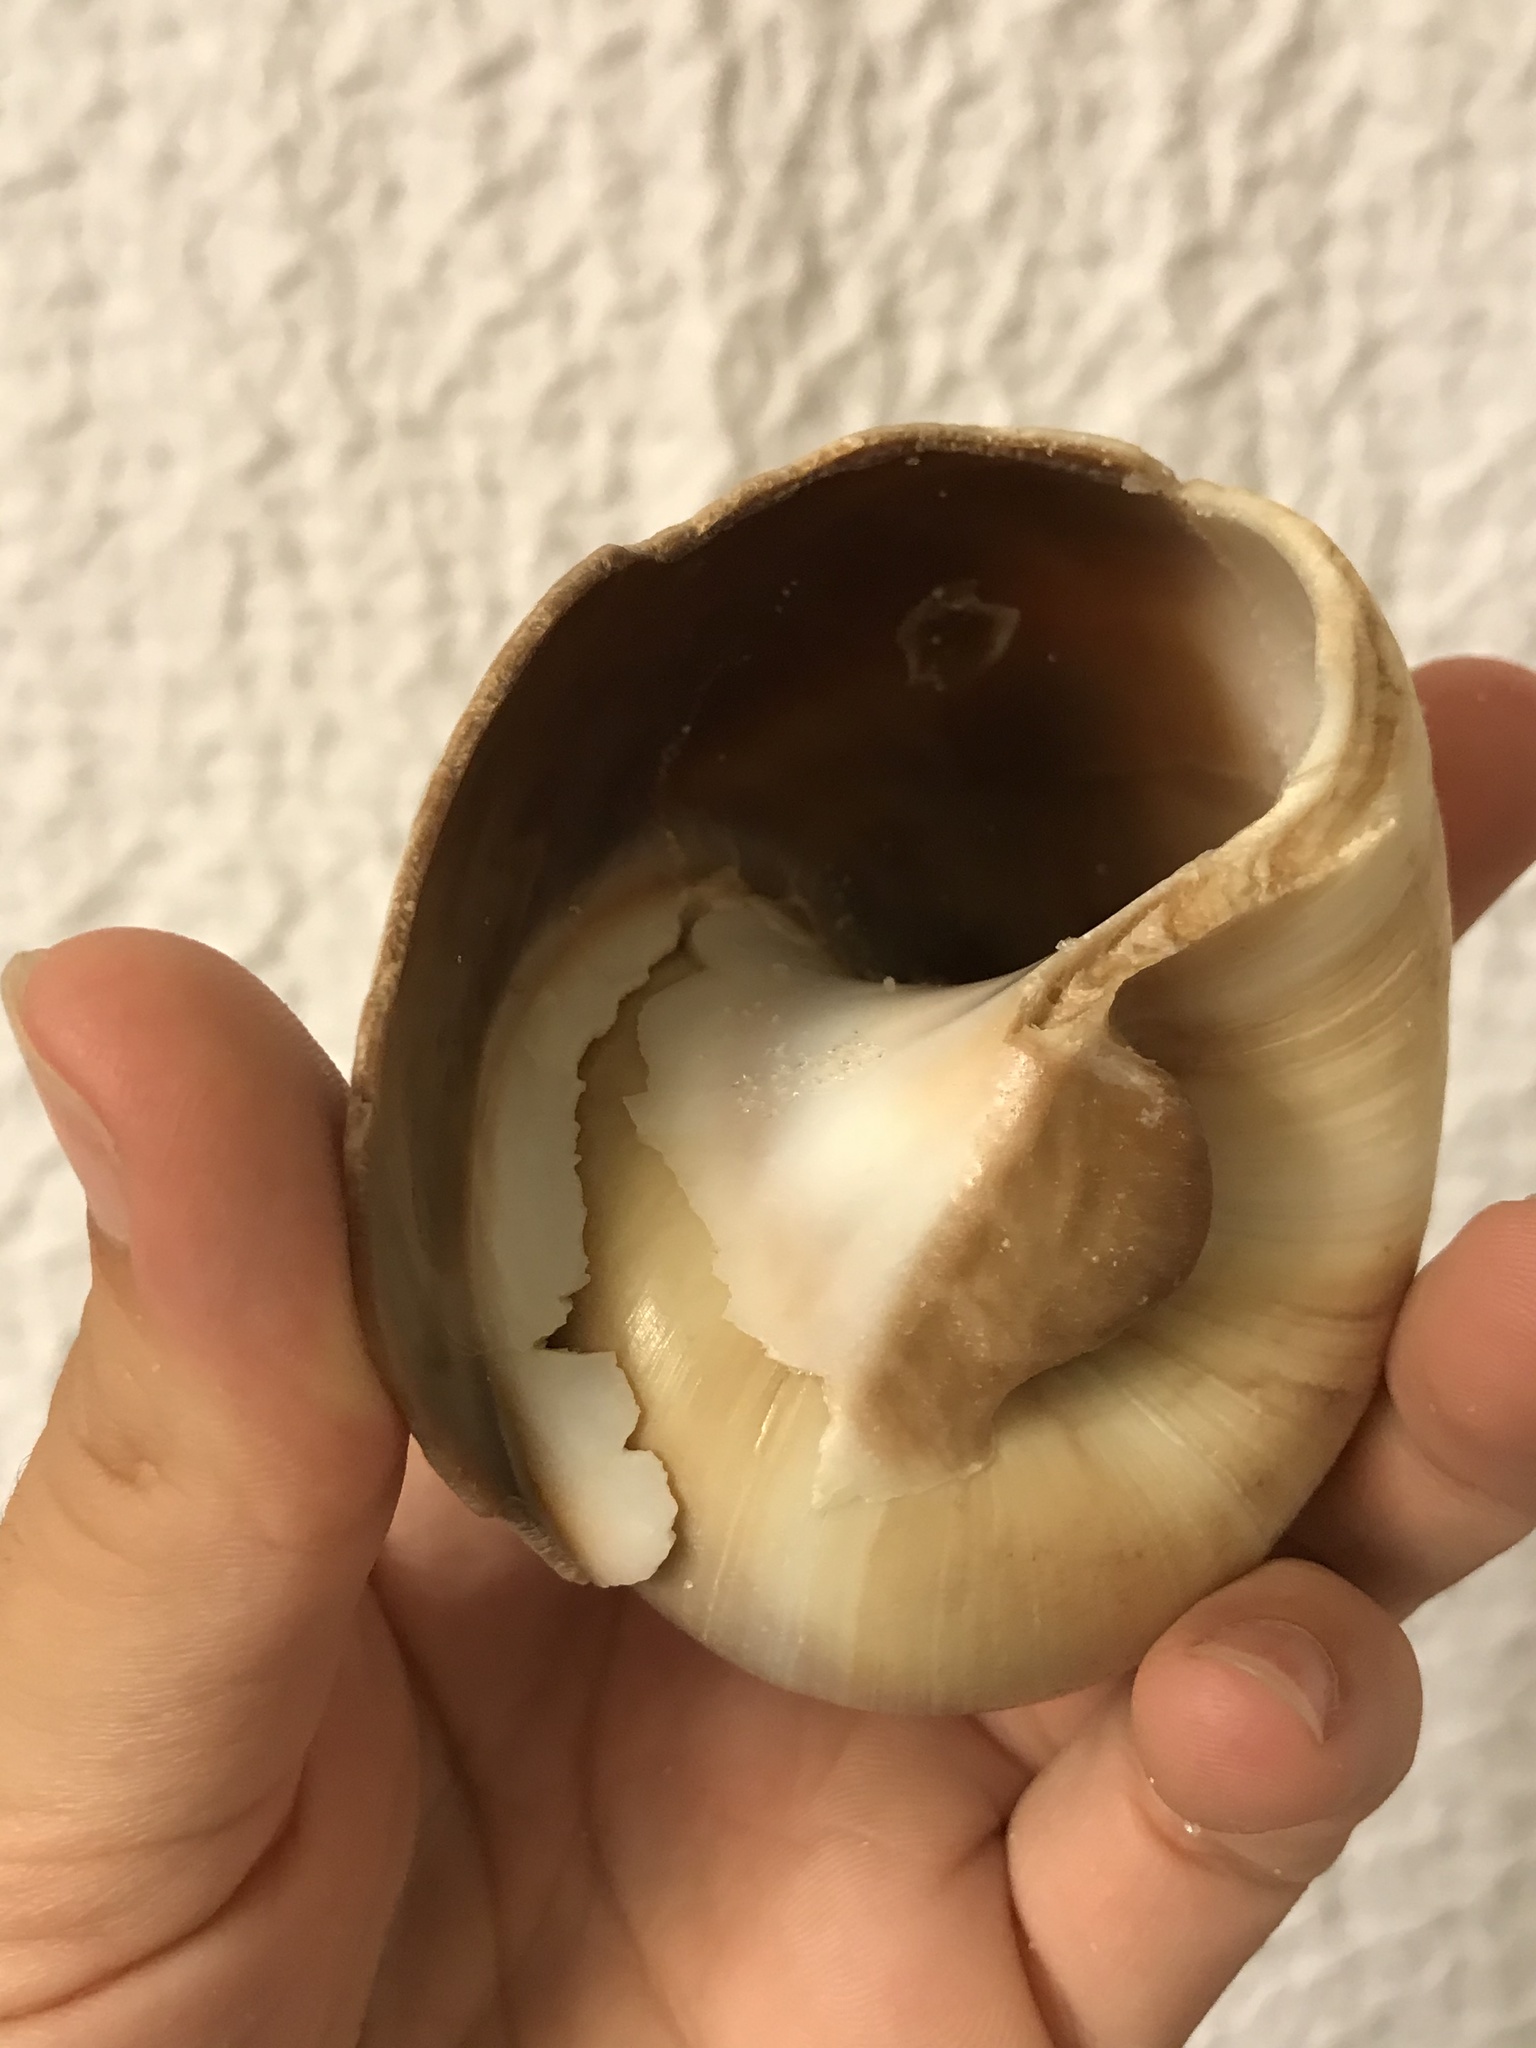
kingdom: Animalia
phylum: Mollusca
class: Gastropoda
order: Littorinimorpha
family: Naticidae
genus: Neverita
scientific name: Neverita duplicata
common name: Lobed moonsnail
